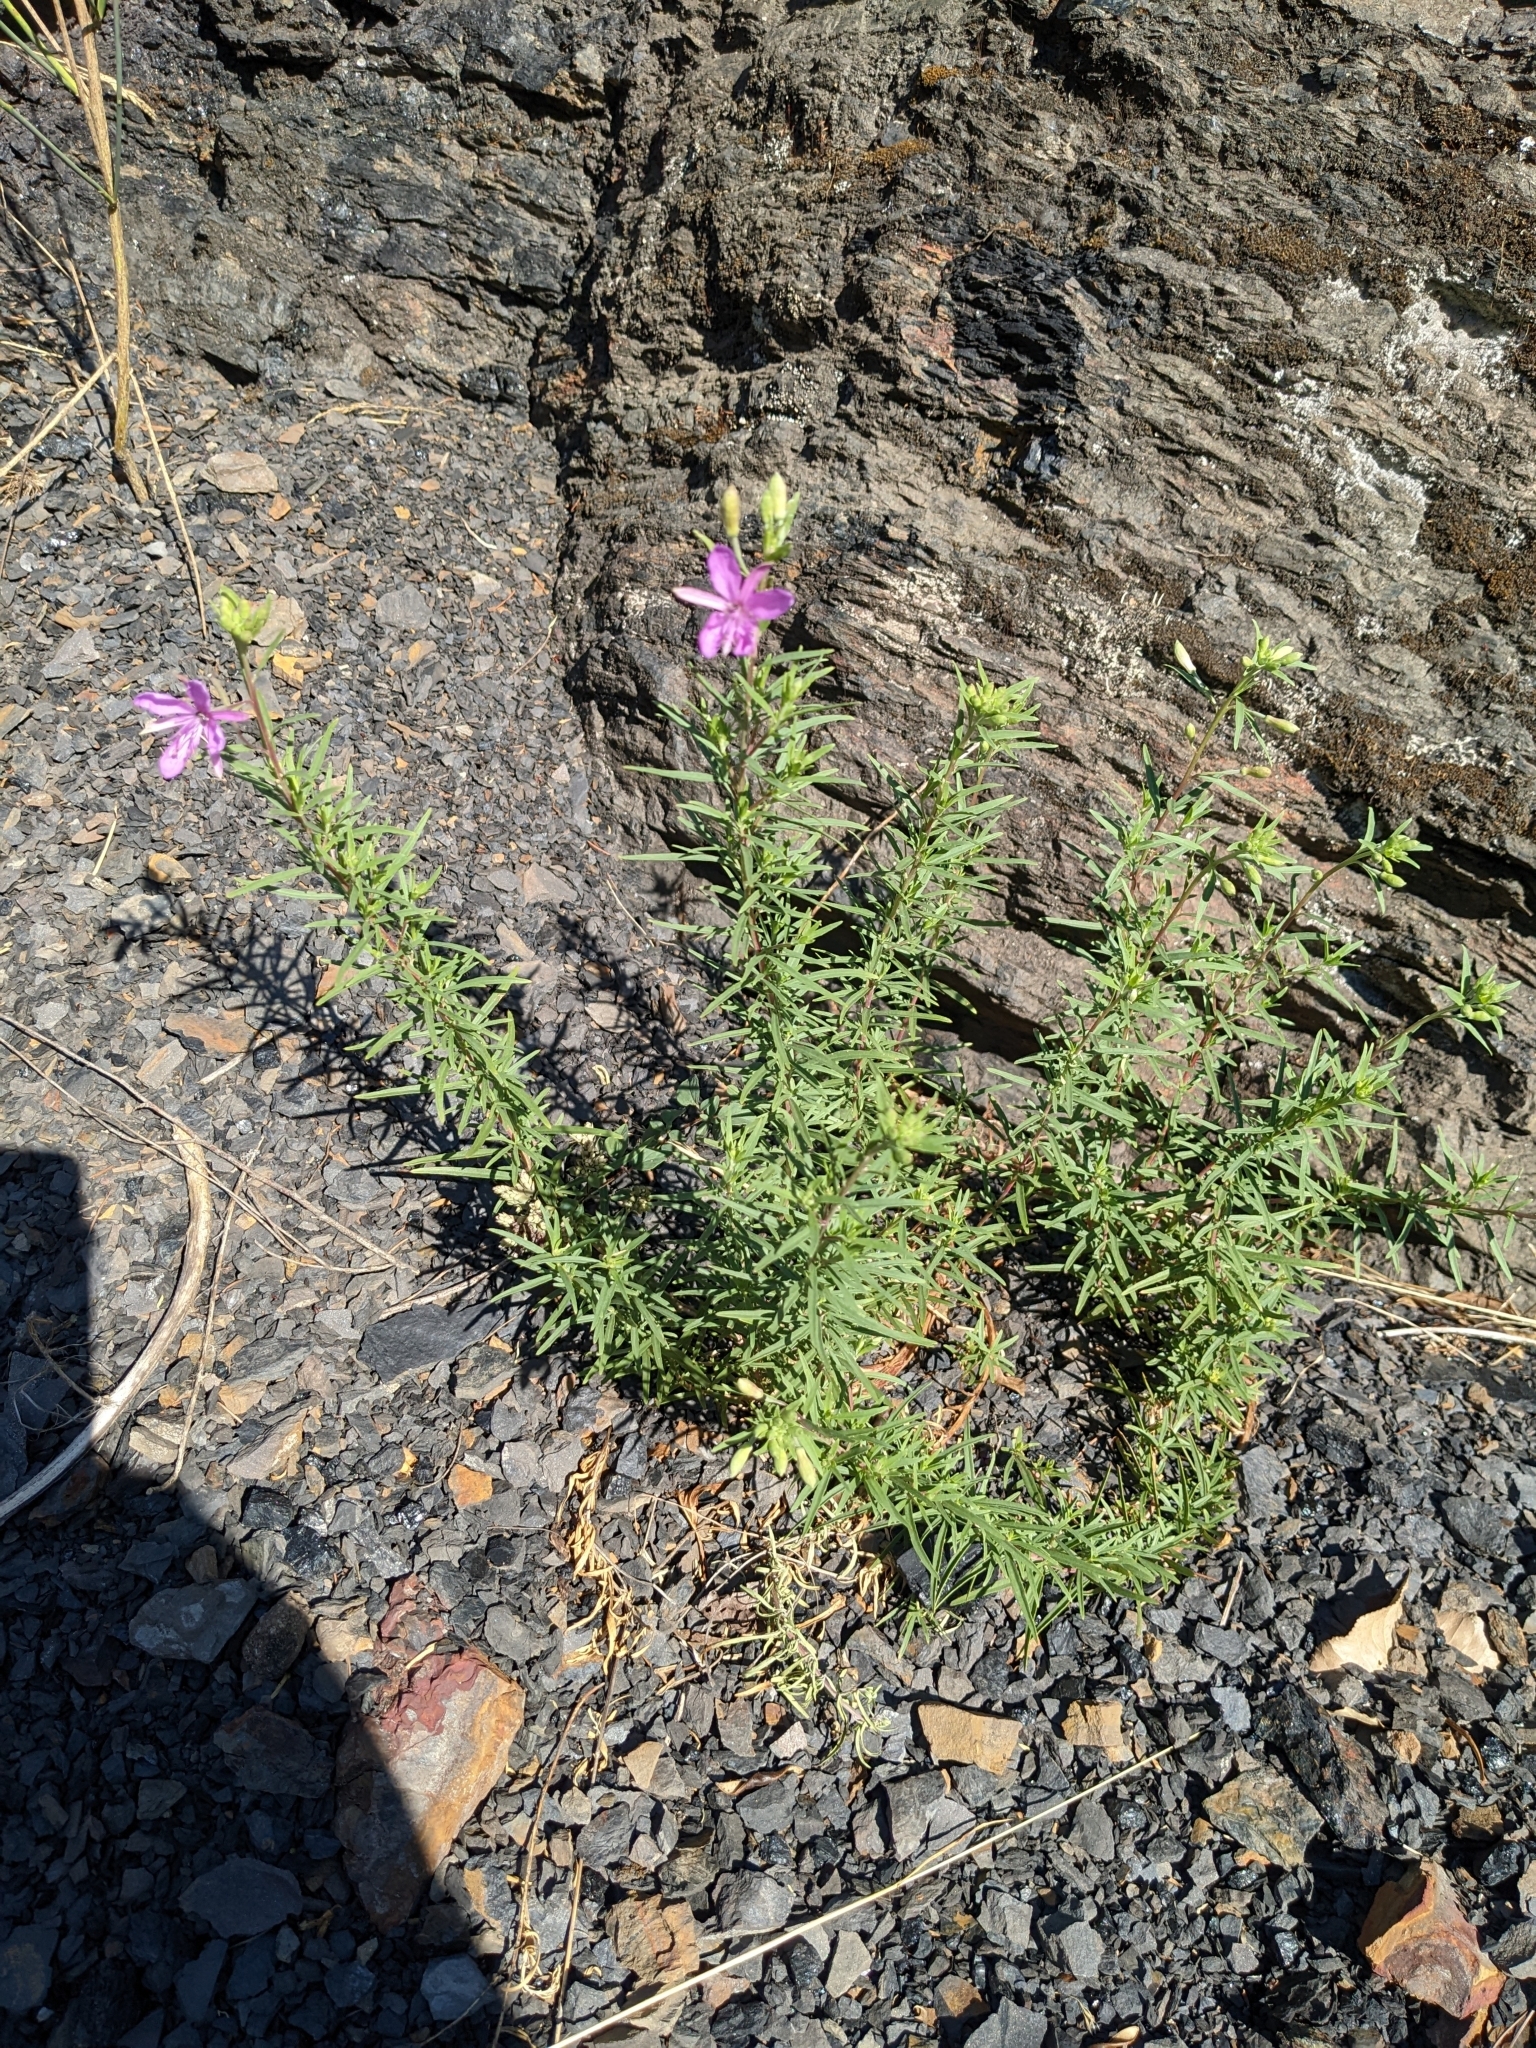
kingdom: Plantae
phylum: Tracheophyta
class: Magnoliopsida
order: Myrtales
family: Onagraceae
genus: Chamaenerion
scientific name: Chamaenerion dodonaei
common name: Rosemary-leaved willowherb
